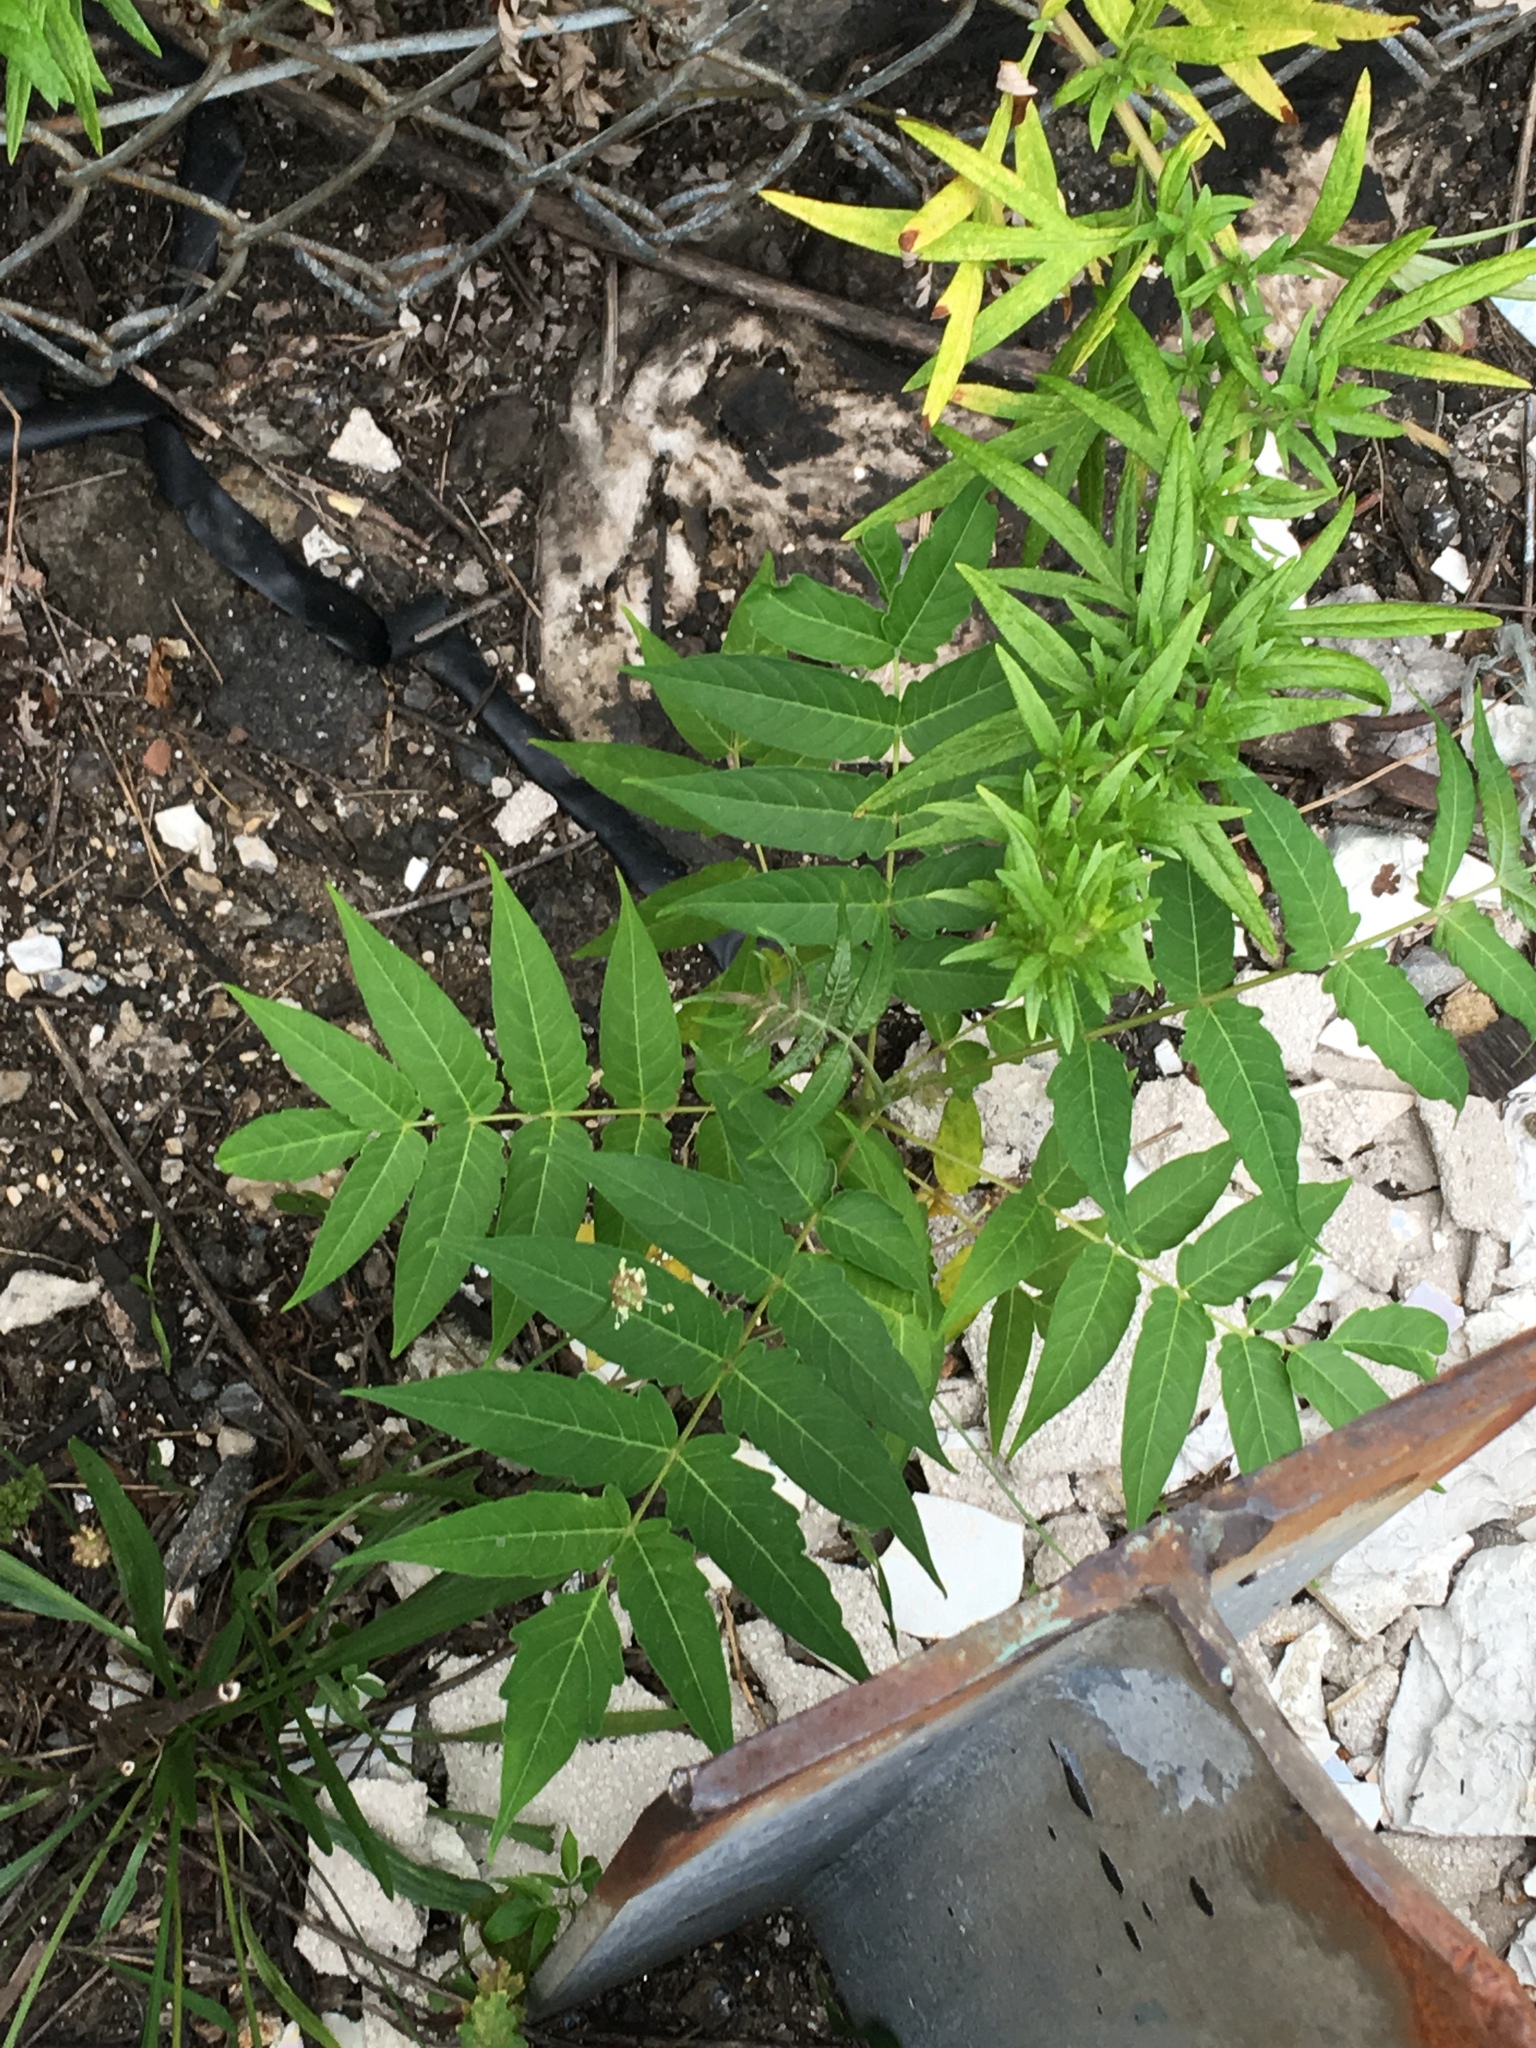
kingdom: Plantae
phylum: Tracheophyta
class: Magnoliopsida
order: Sapindales
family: Simaroubaceae
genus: Ailanthus
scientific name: Ailanthus altissima
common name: Tree-of-heaven
